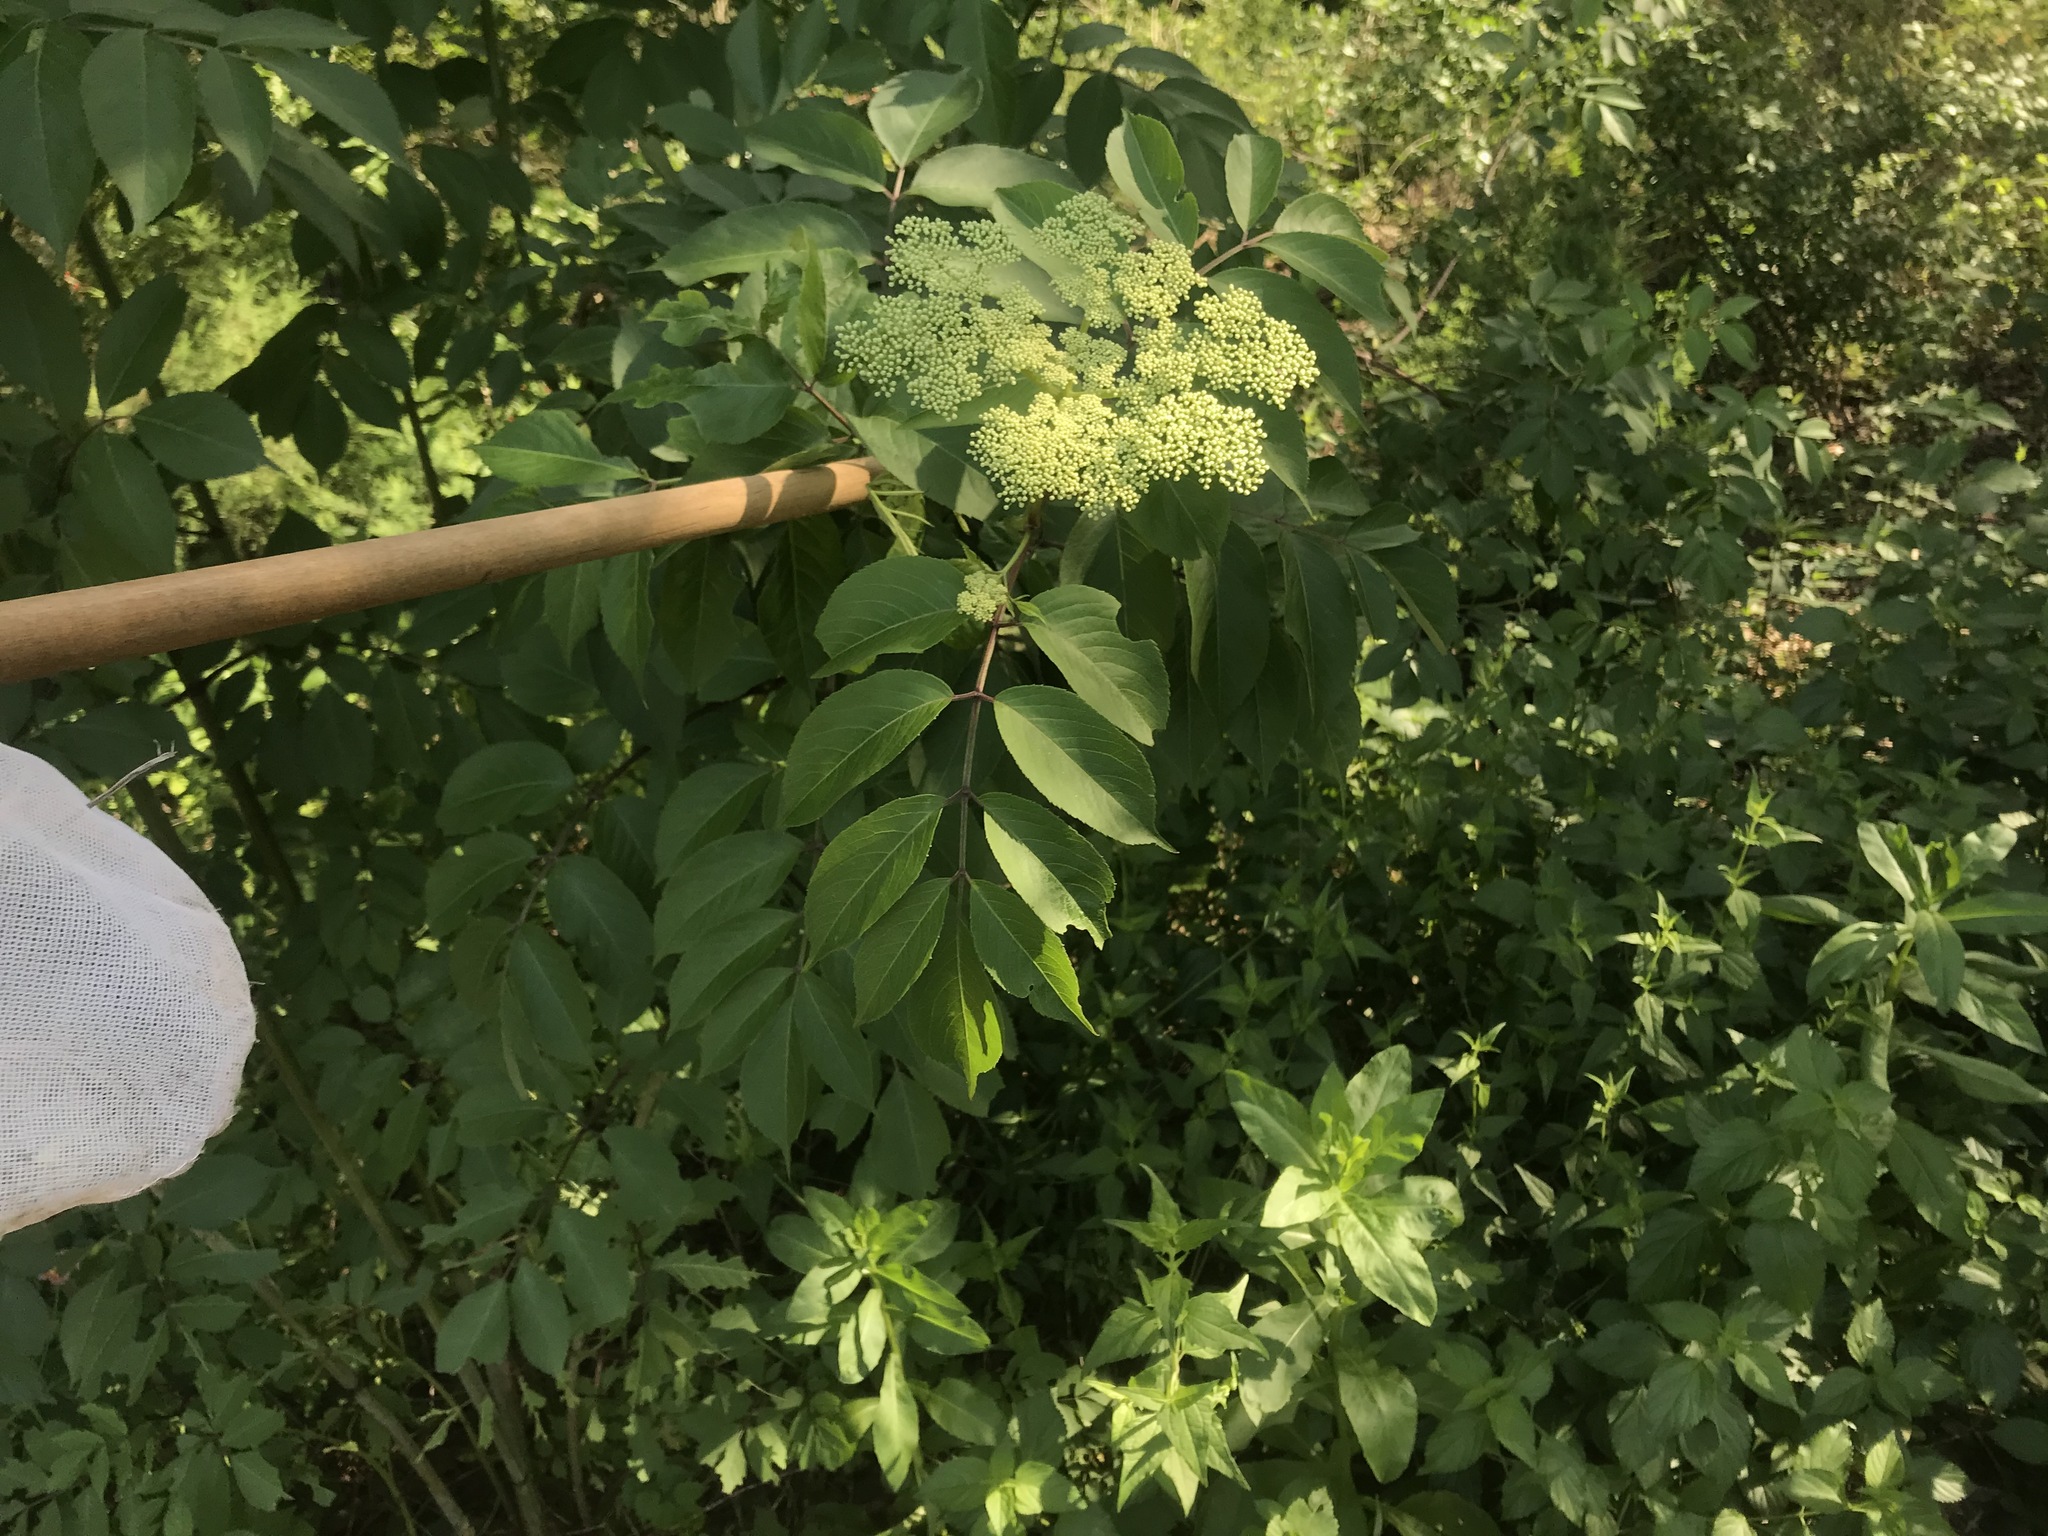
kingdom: Plantae
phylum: Tracheophyta
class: Magnoliopsida
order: Dipsacales
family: Viburnaceae
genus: Sambucus
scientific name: Sambucus canadensis
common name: American elder
